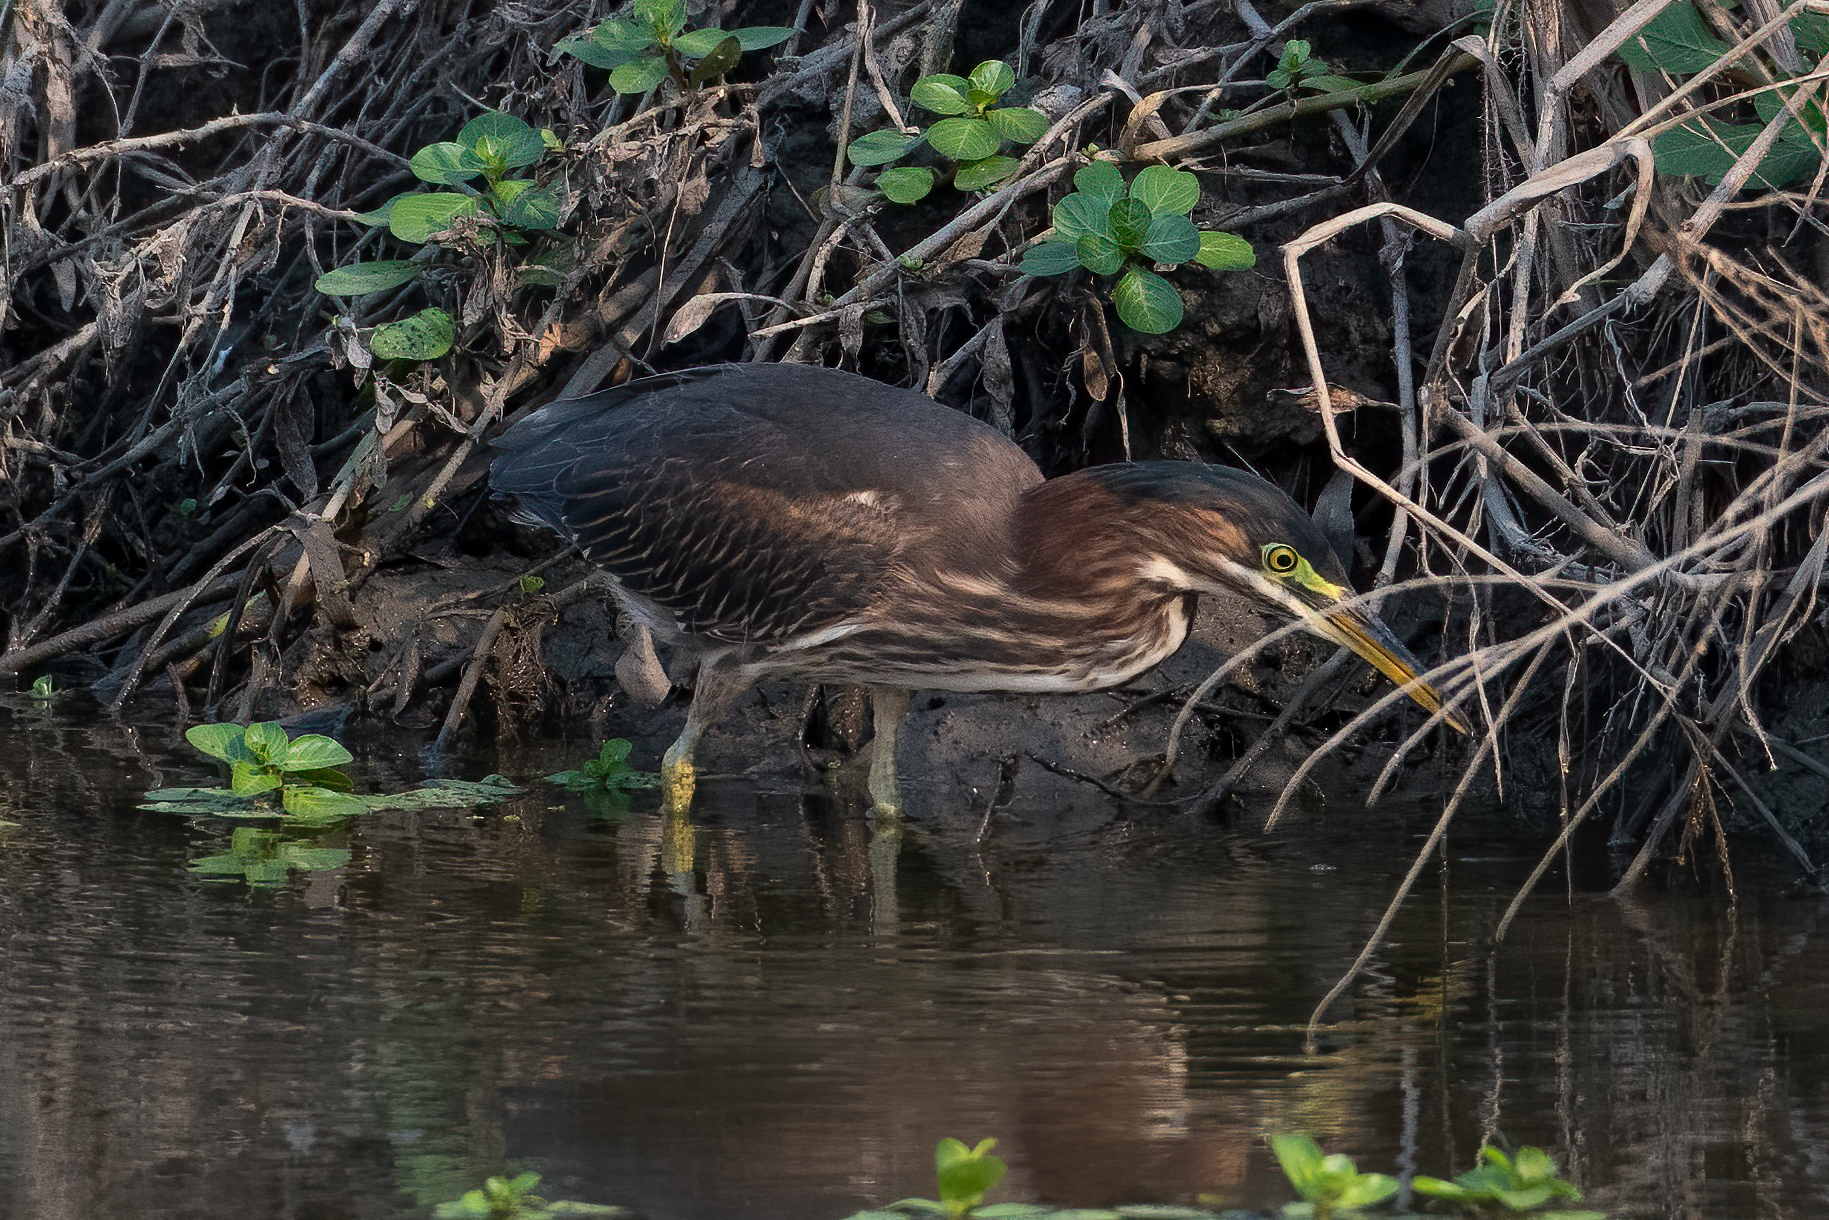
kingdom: Animalia
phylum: Chordata
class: Aves
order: Pelecaniformes
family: Ardeidae
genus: Butorides
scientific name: Butorides virescens
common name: Green heron
